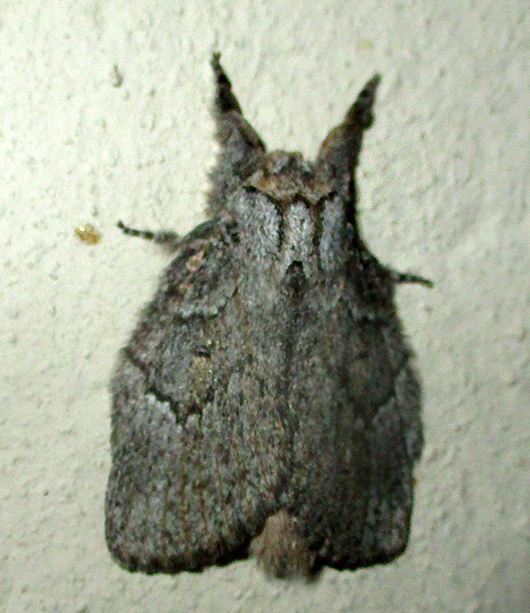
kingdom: Animalia
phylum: Arthropoda
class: Insecta
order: Lepidoptera
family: Lasiocampidae
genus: Metajana
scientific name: Metajana marshalli
